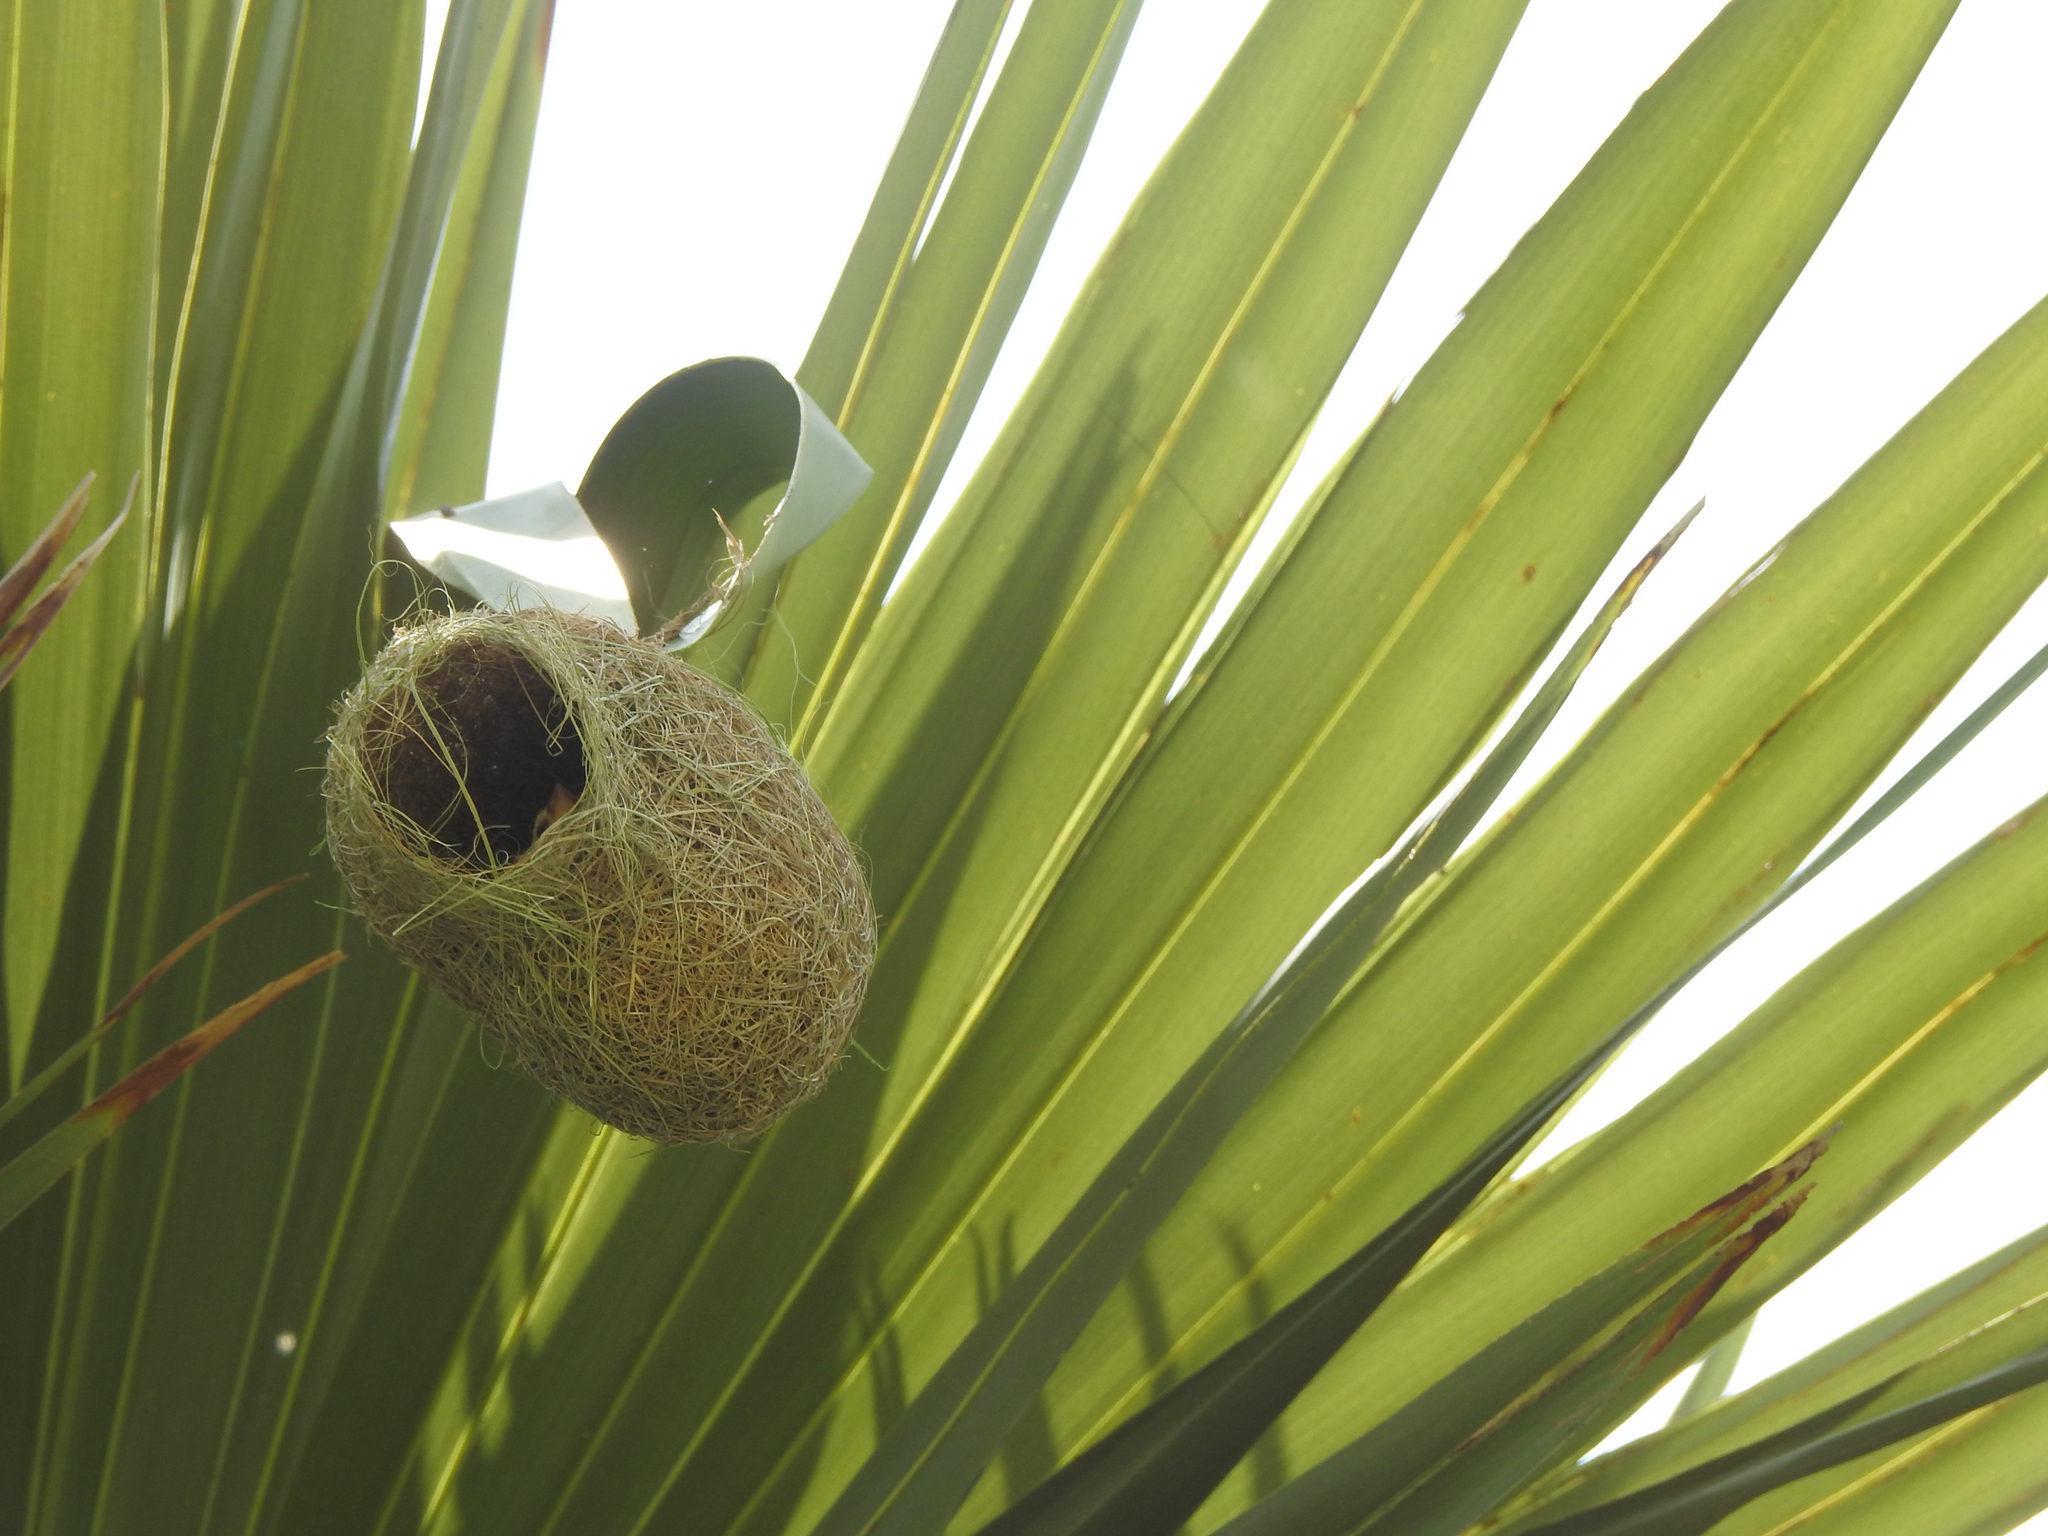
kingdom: Animalia
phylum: Chordata
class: Aves
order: Passeriformes
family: Ploceidae
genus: Ploceus
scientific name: Ploceus philippinus
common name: Baya weaver
